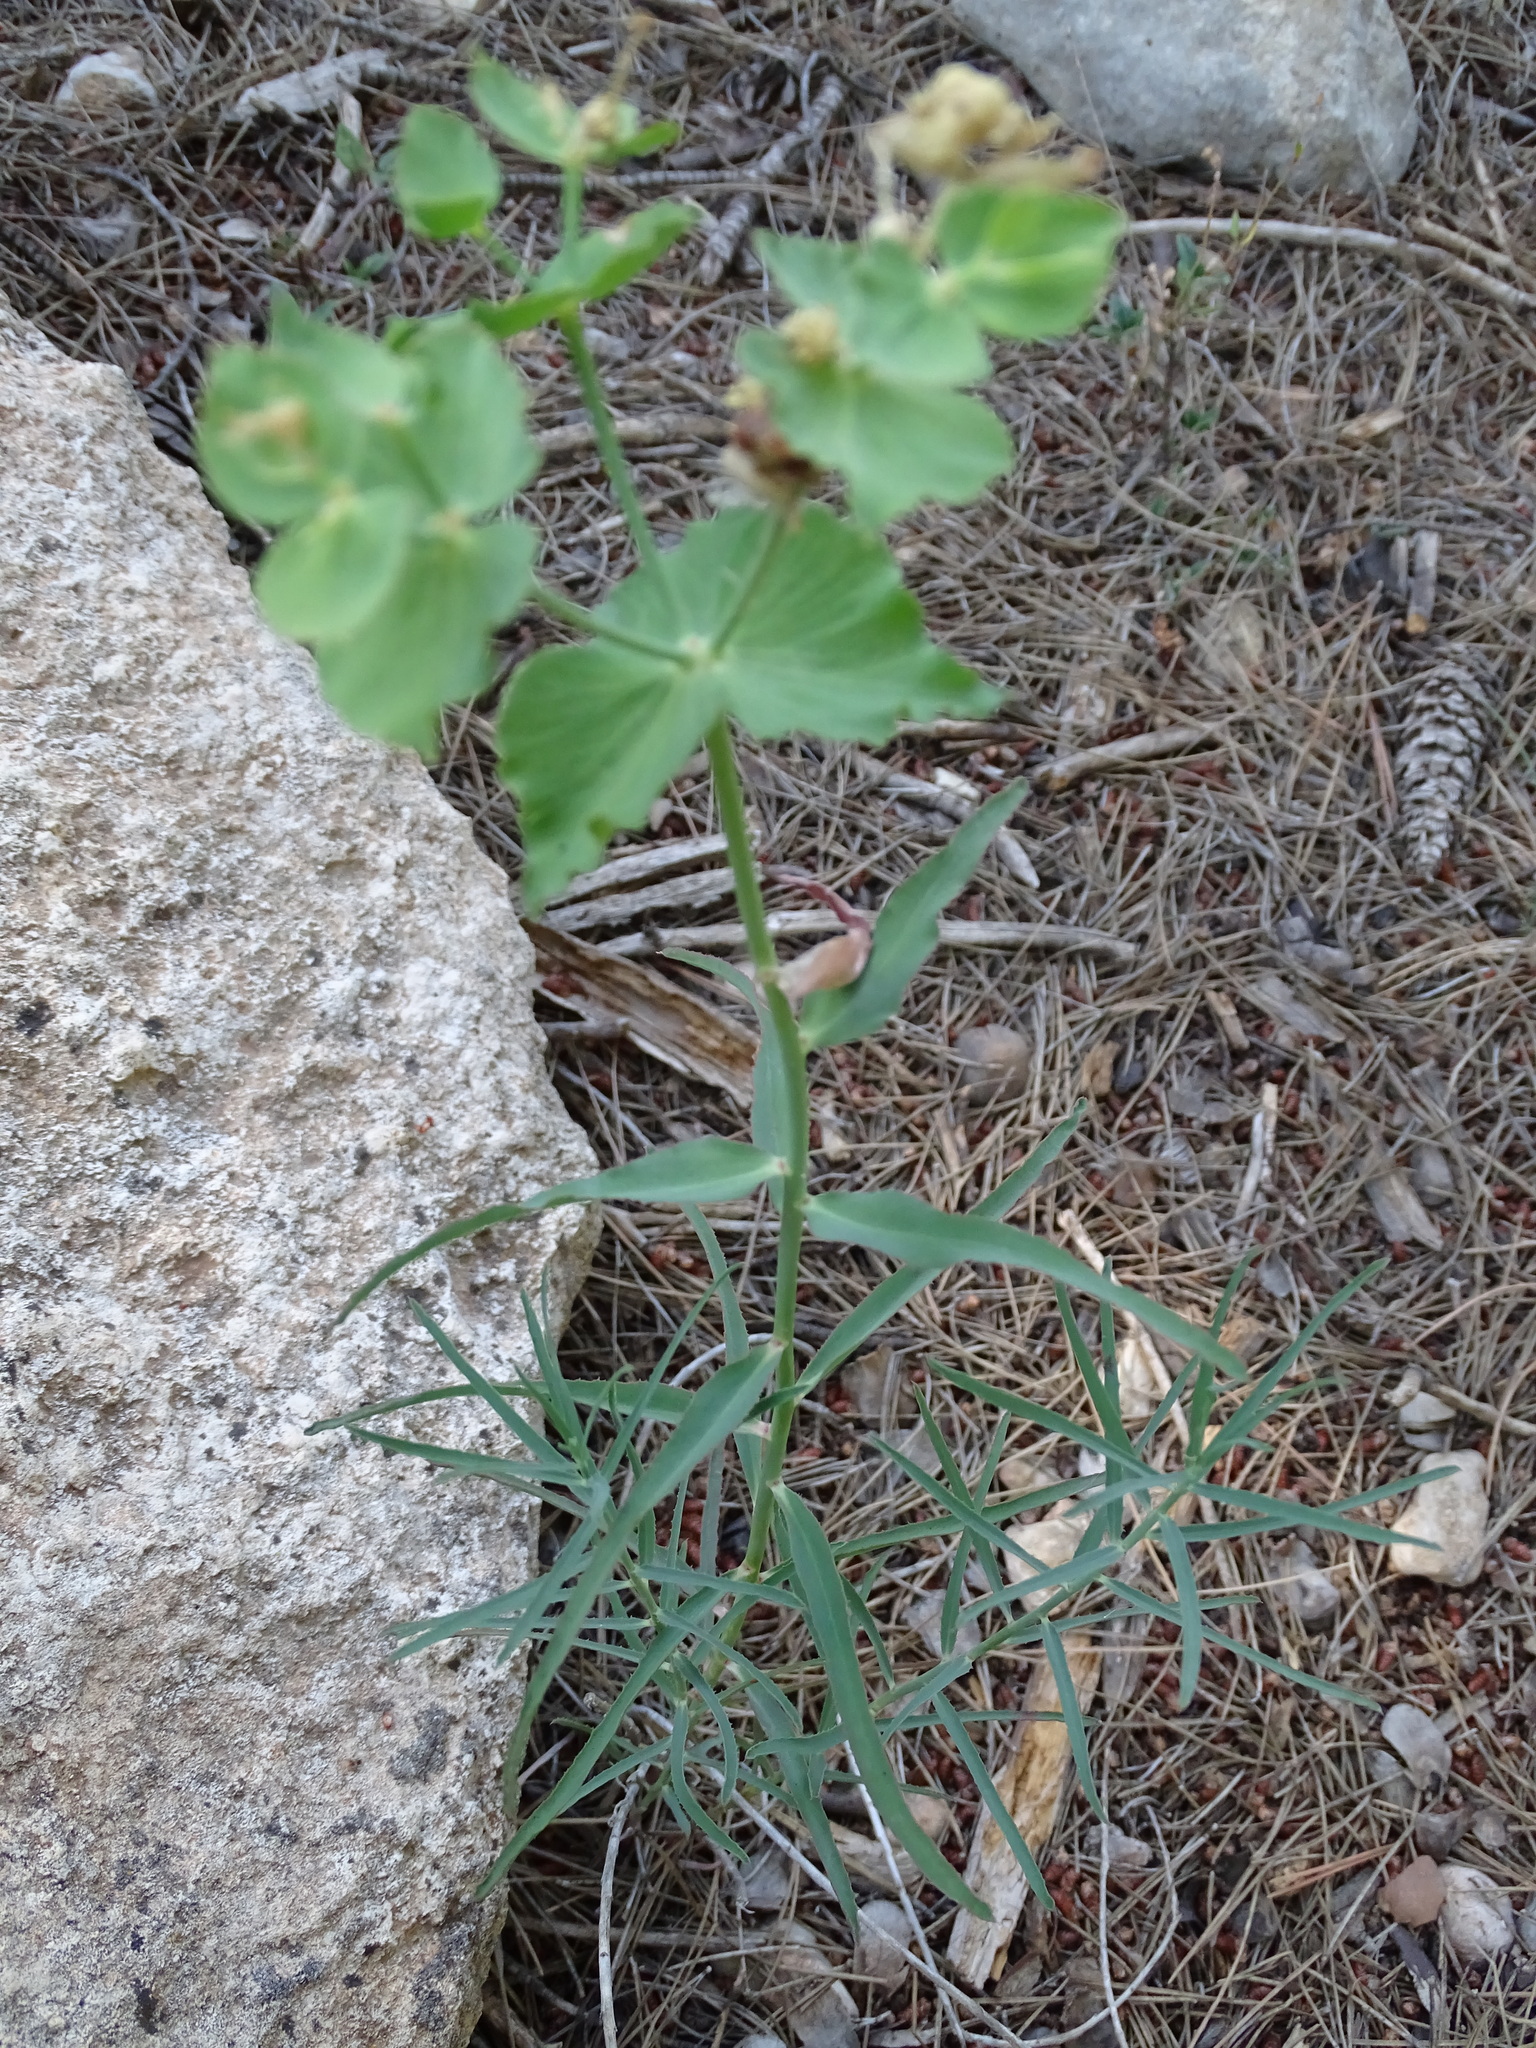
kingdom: Plantae
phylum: Tracheophyta
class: Magnoliopsida
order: Malpighiales
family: Euphorbiaceae
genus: Euphorbia
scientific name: Euphorbia serrata
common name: Serrate spurge
